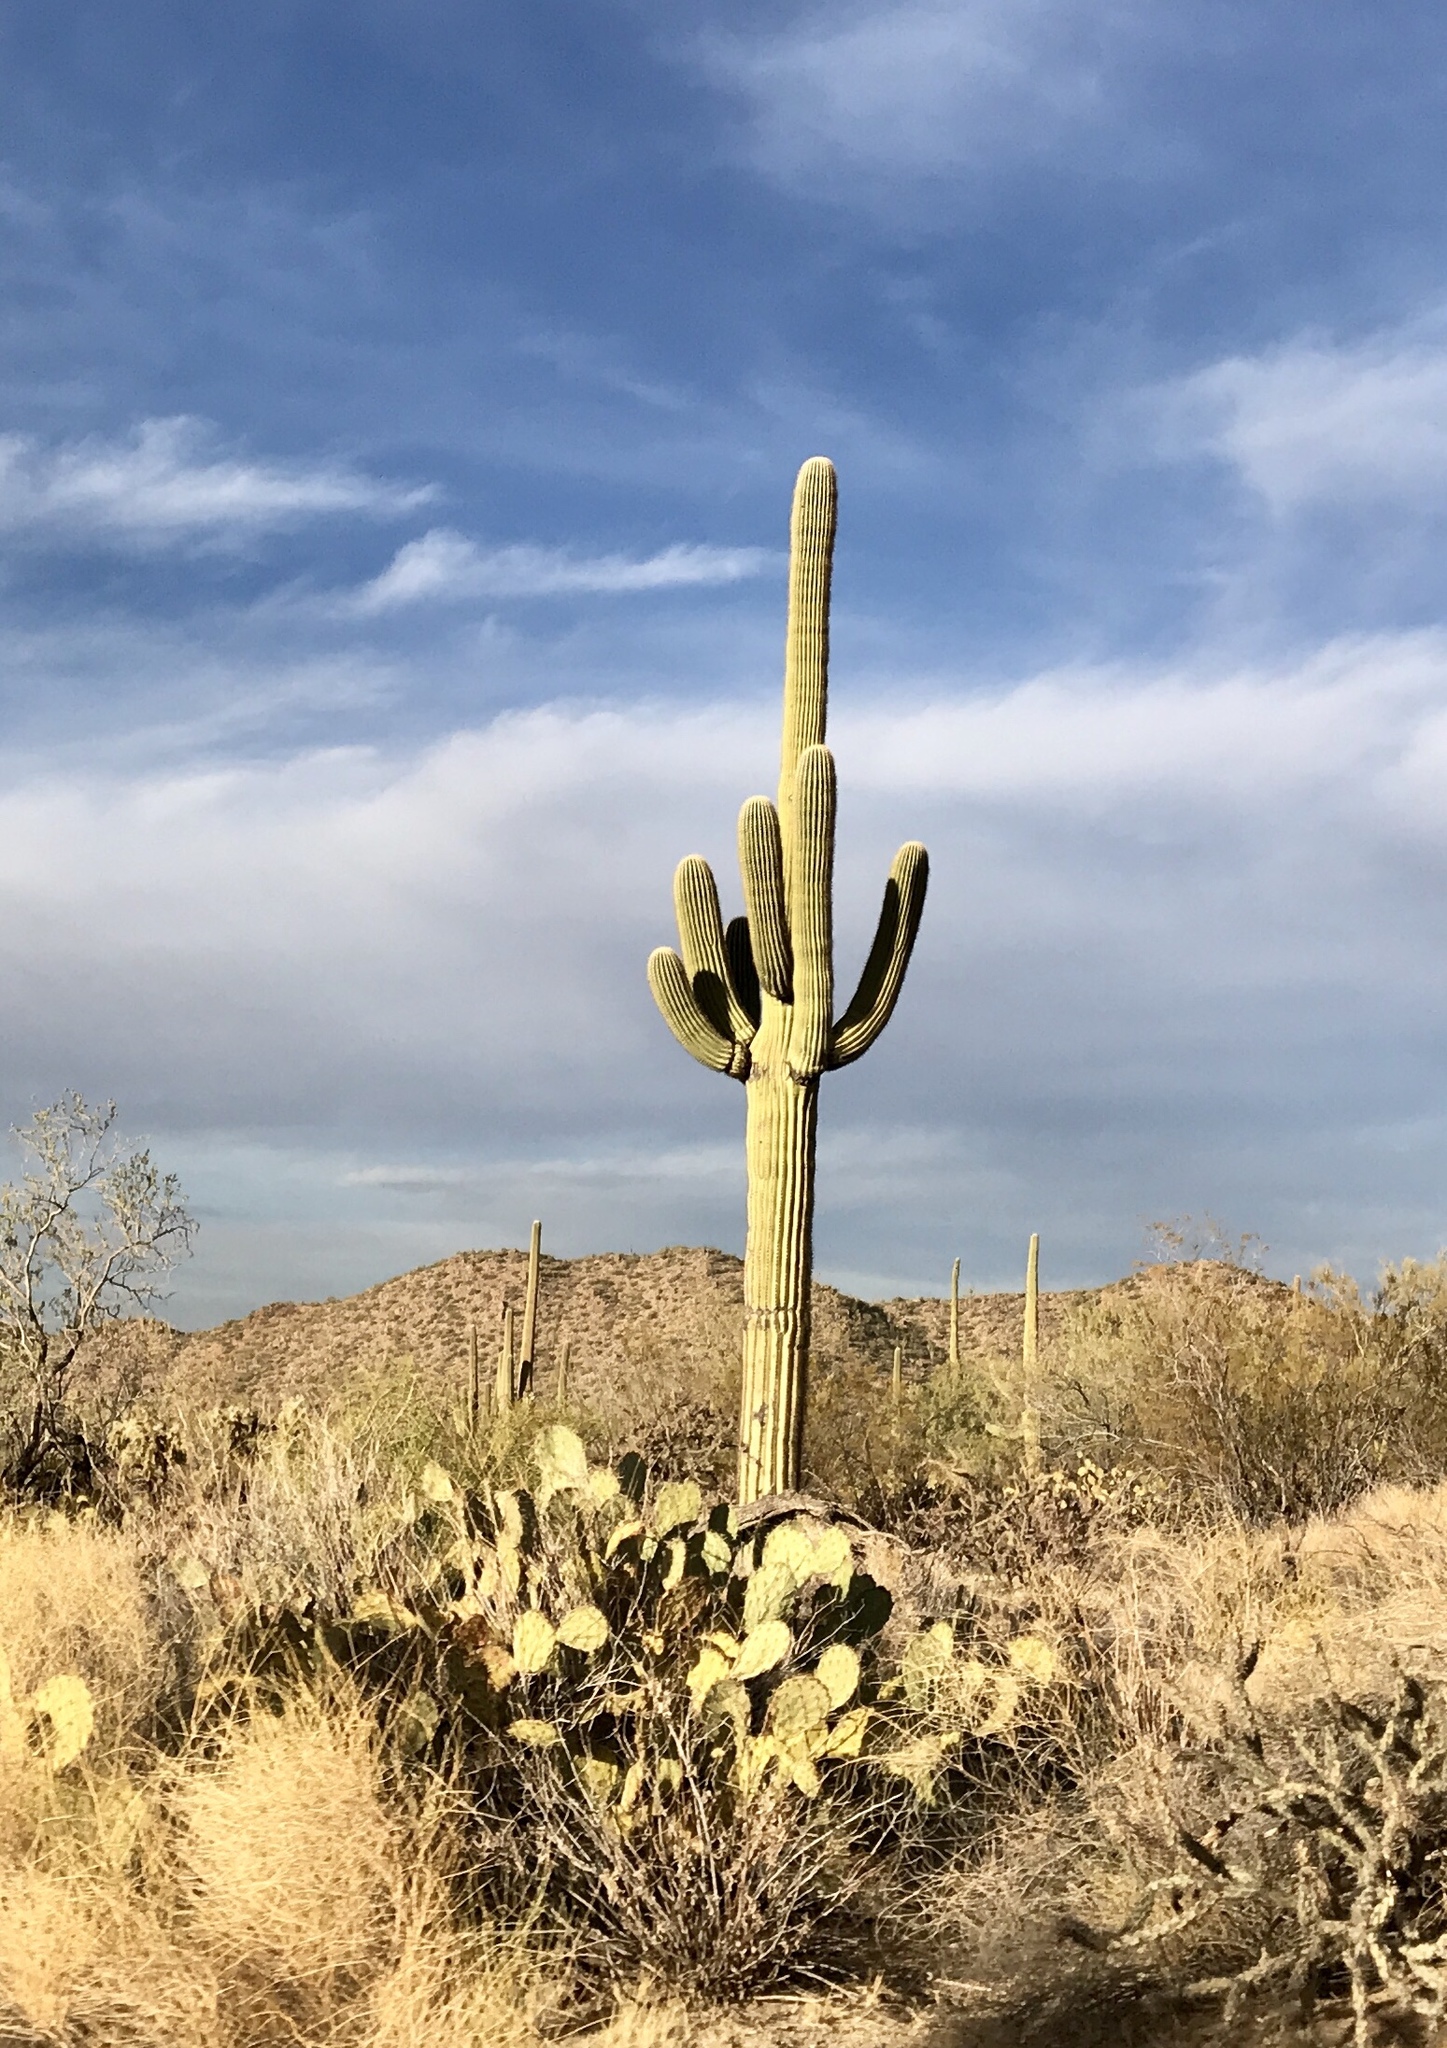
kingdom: Plantae
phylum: Tracheophyta
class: Magnoliopsida
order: Caryophyllales
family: Cactaceae
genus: Carnegiea
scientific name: Carnegiea gigantea
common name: Saguaro
